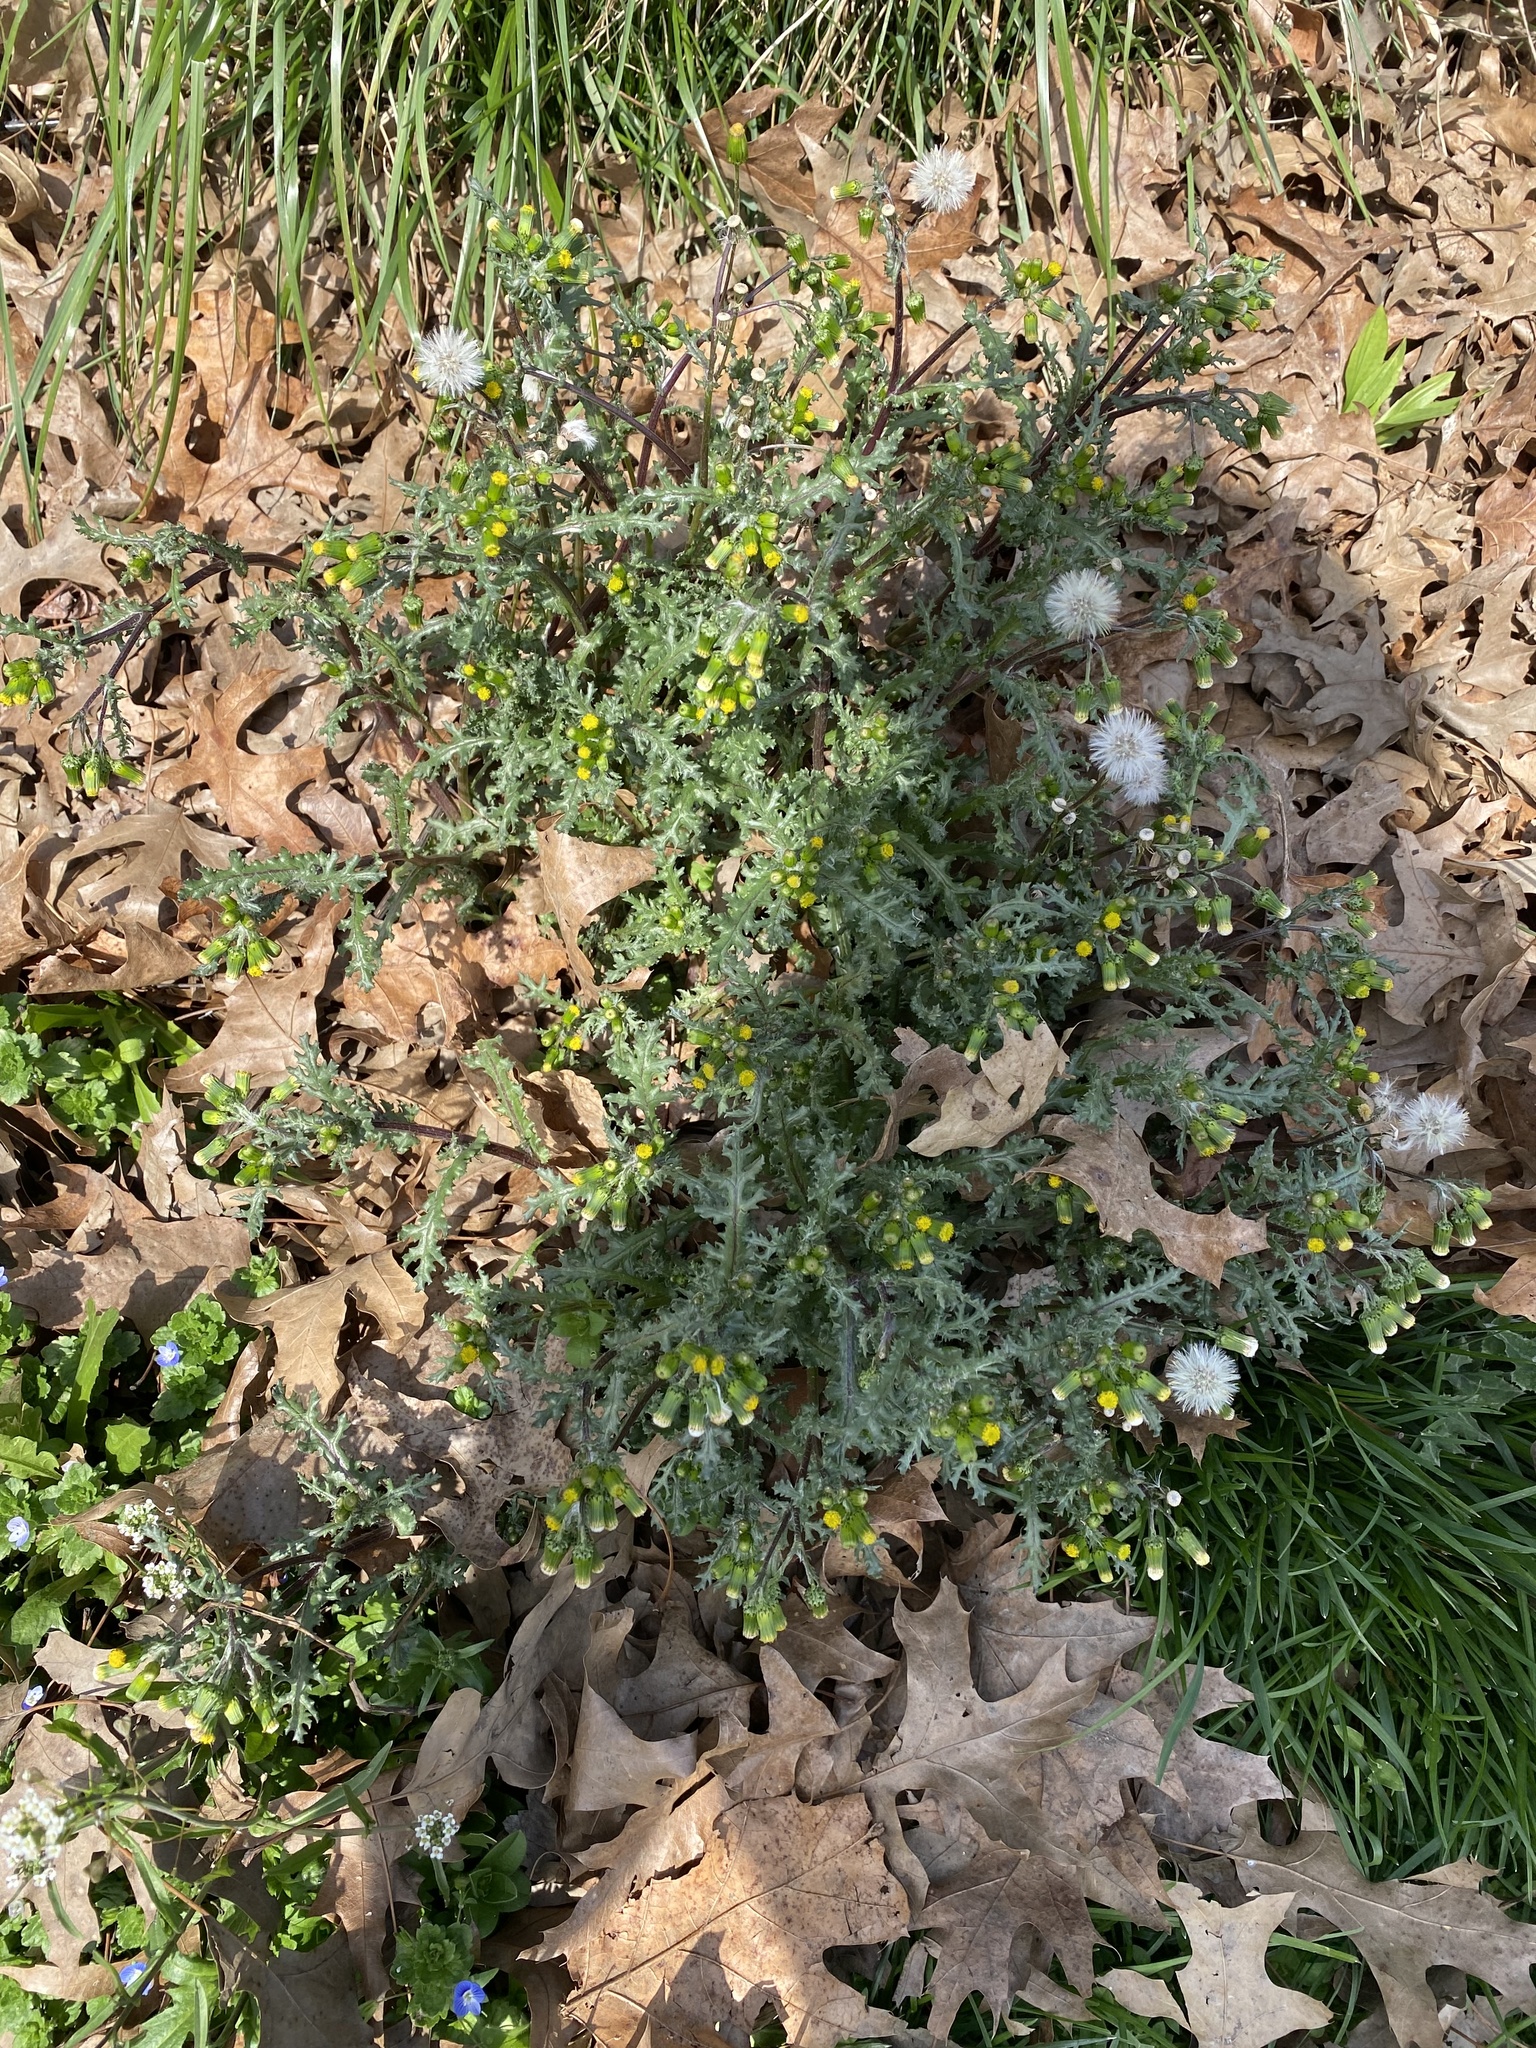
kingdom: Plantae
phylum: Tracheophyta
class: Magnoliopsida
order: Asterales
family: Asteraceae
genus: Senecio
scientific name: Senecio vulgaris
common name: Old-man-in-the-spring
